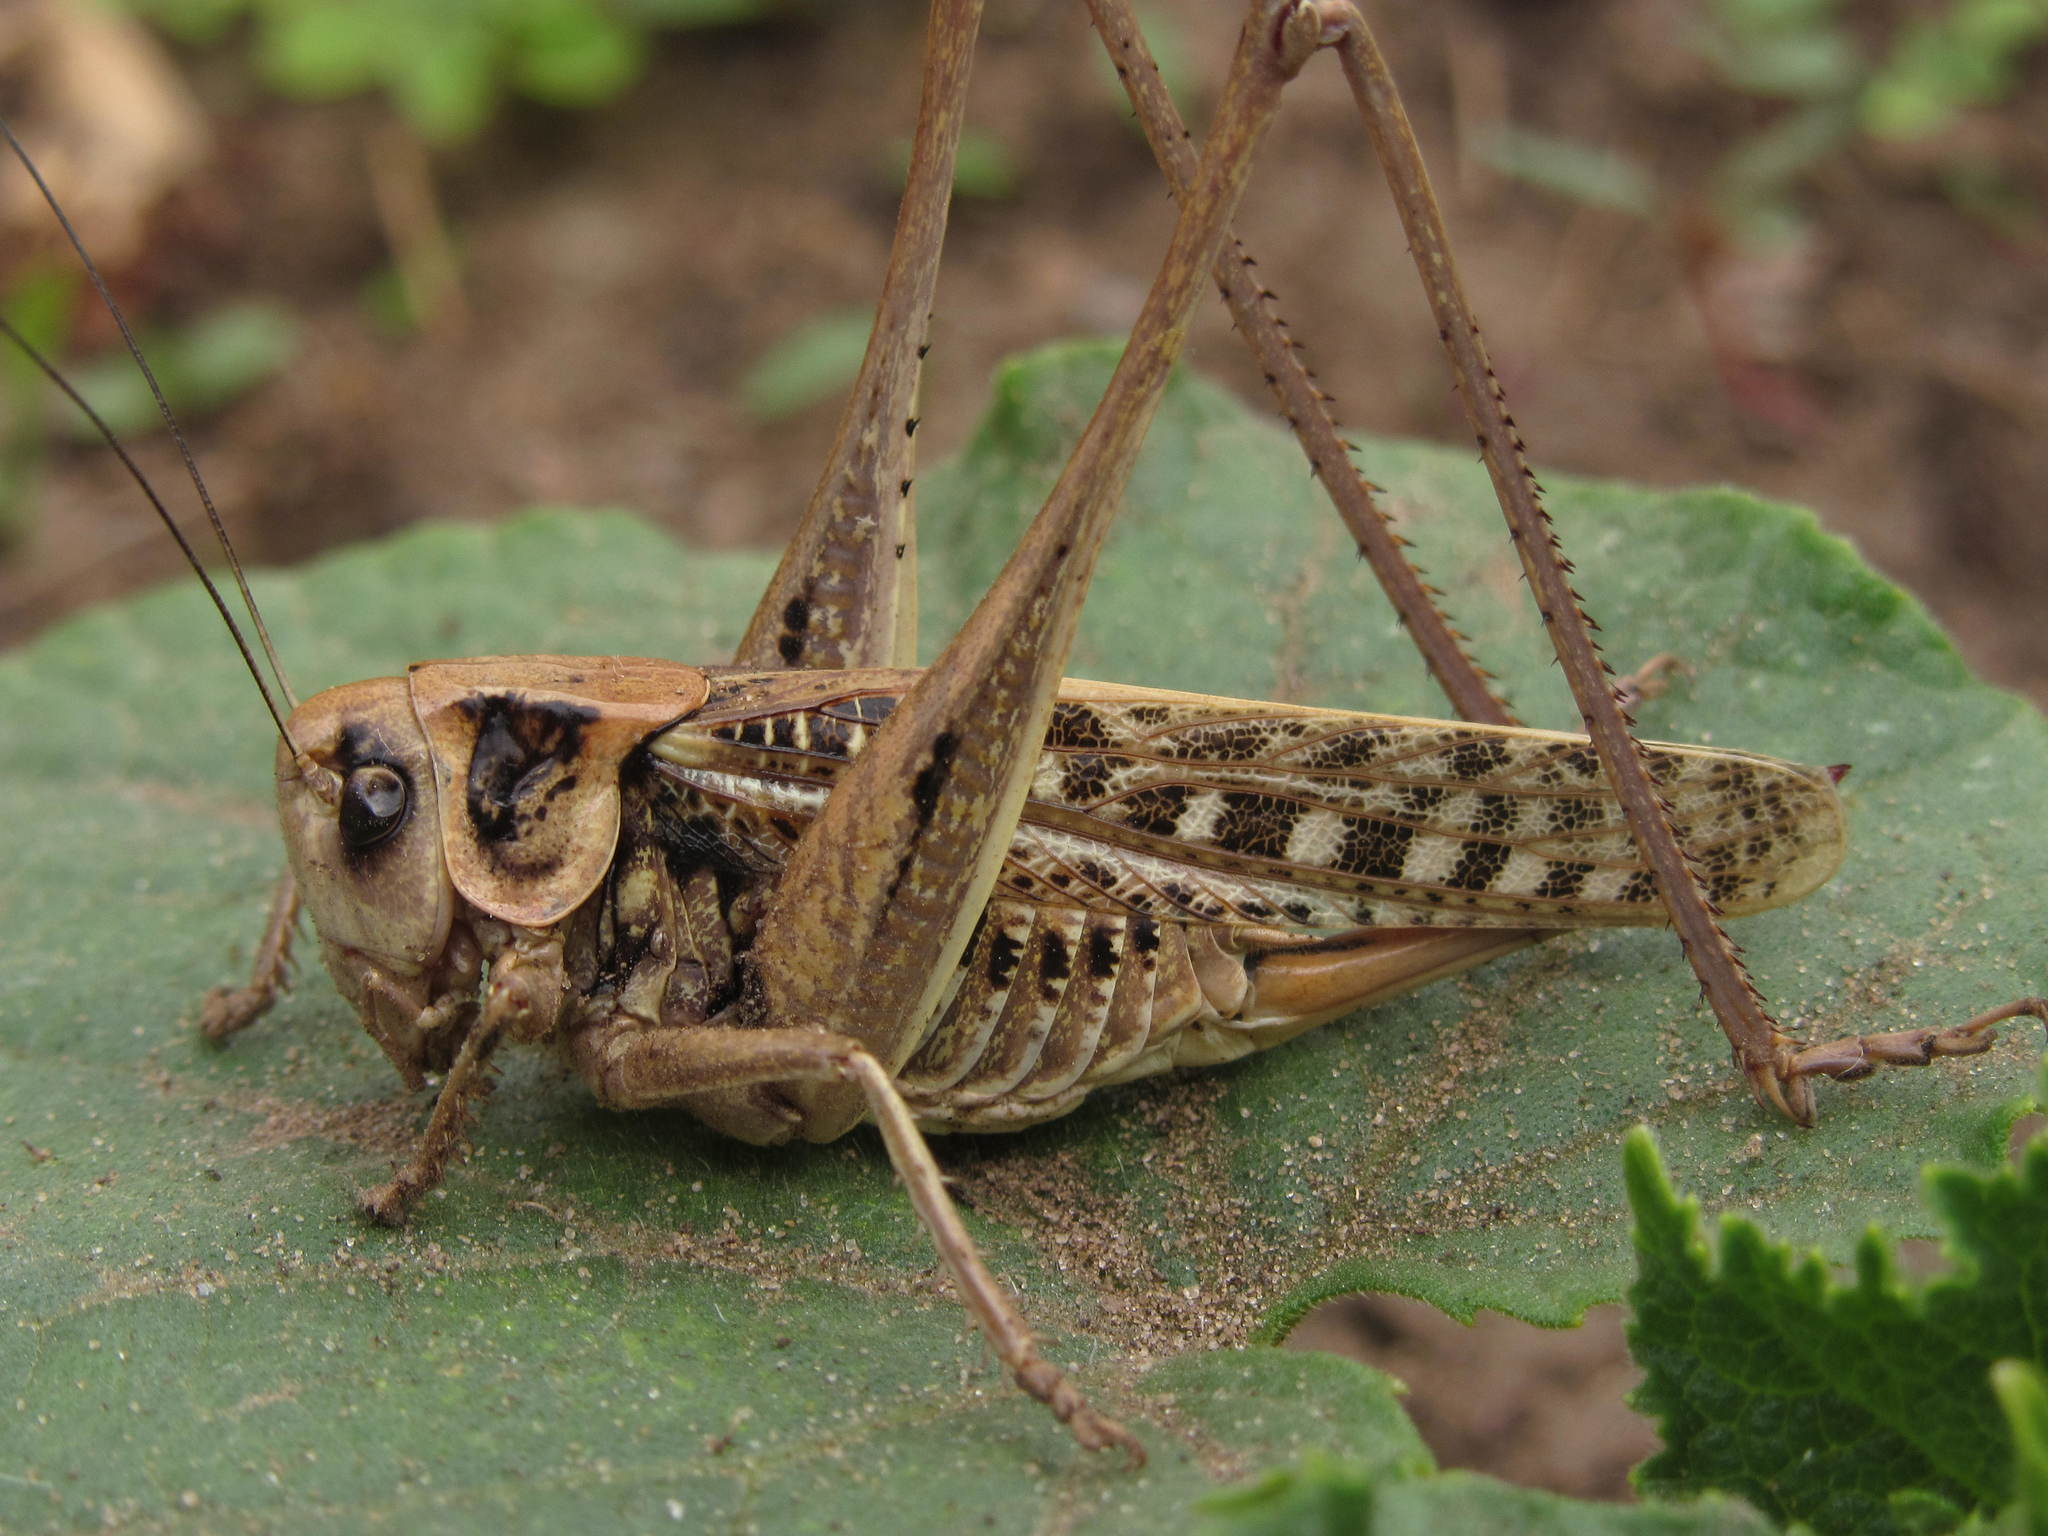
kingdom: Animalia
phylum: Arthropoda
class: Insecta
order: Orthoptera
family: Tettigoniidae
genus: Decticus
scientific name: Decticus verrucivorus
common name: Wart-biter
